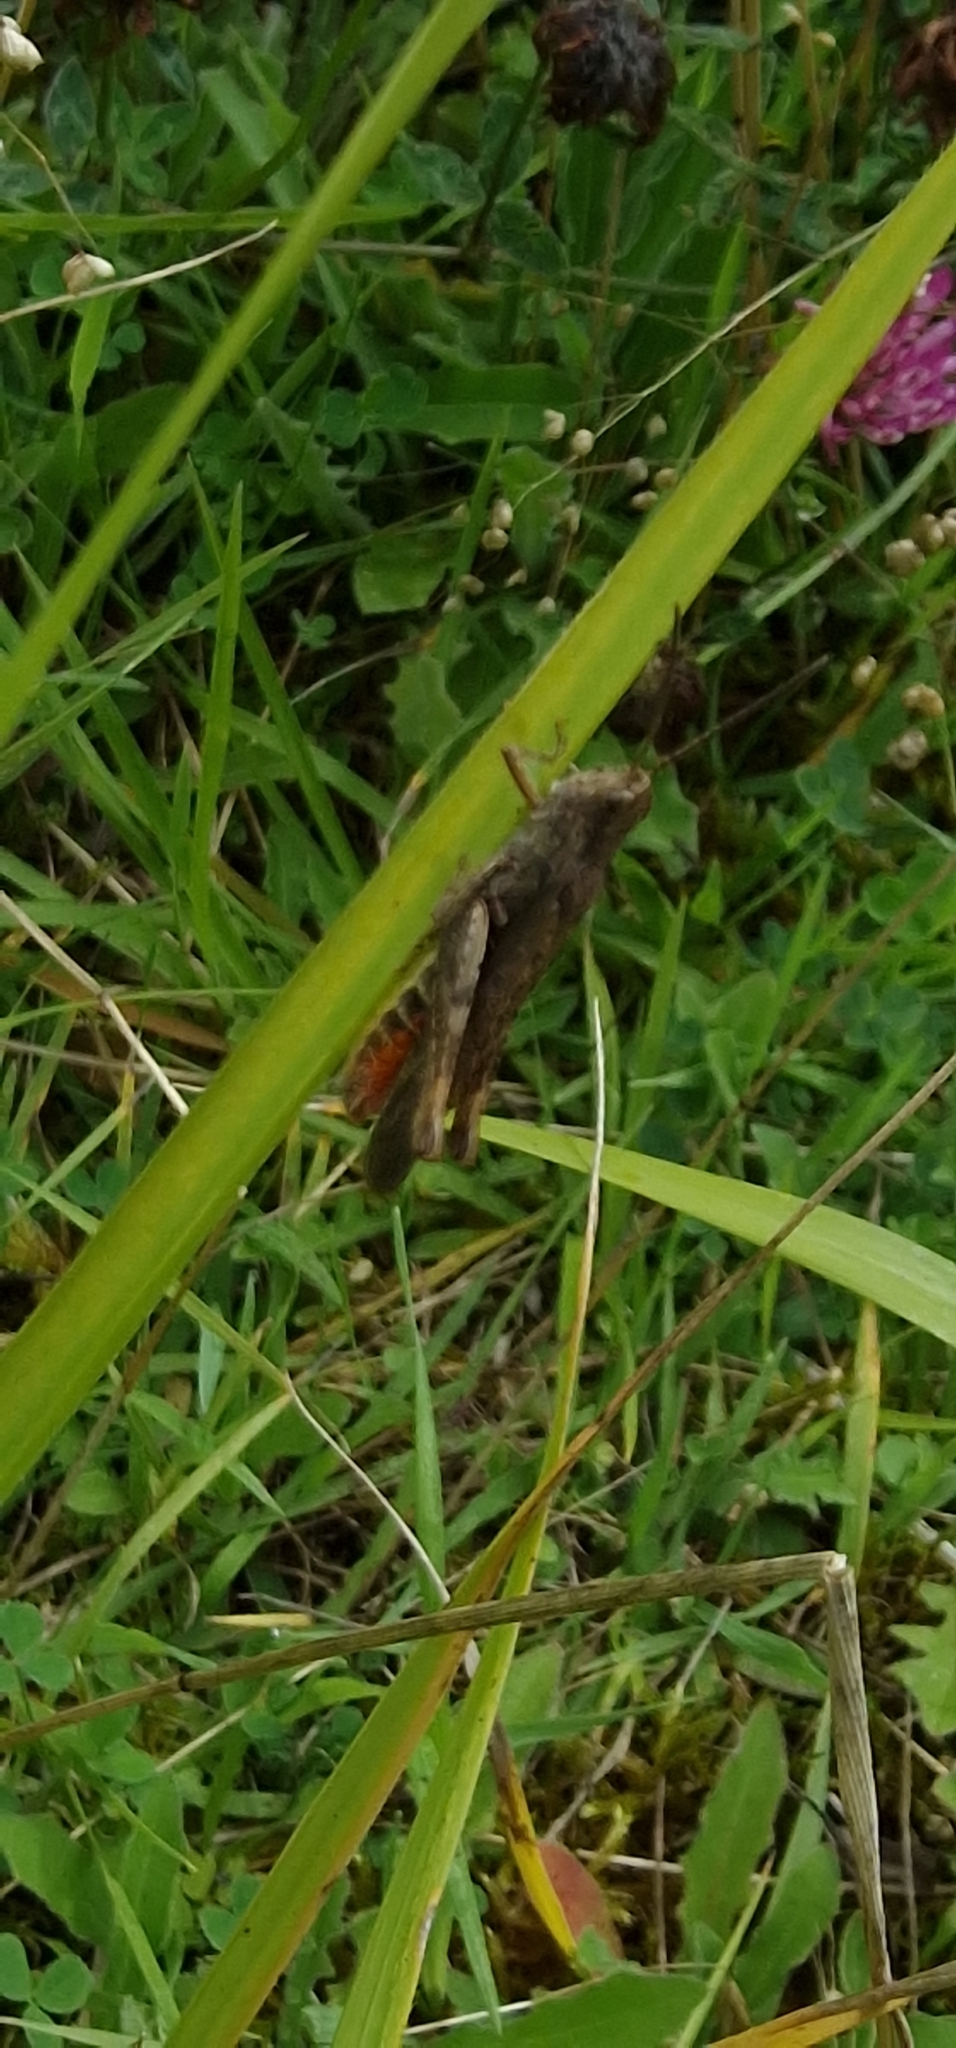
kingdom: Animalia
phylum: Arthropoda
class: Insecta
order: Orthoptera
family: Acrididae
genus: Chorthippus
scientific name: Chorthippus brunneus
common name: Field grasshopper
